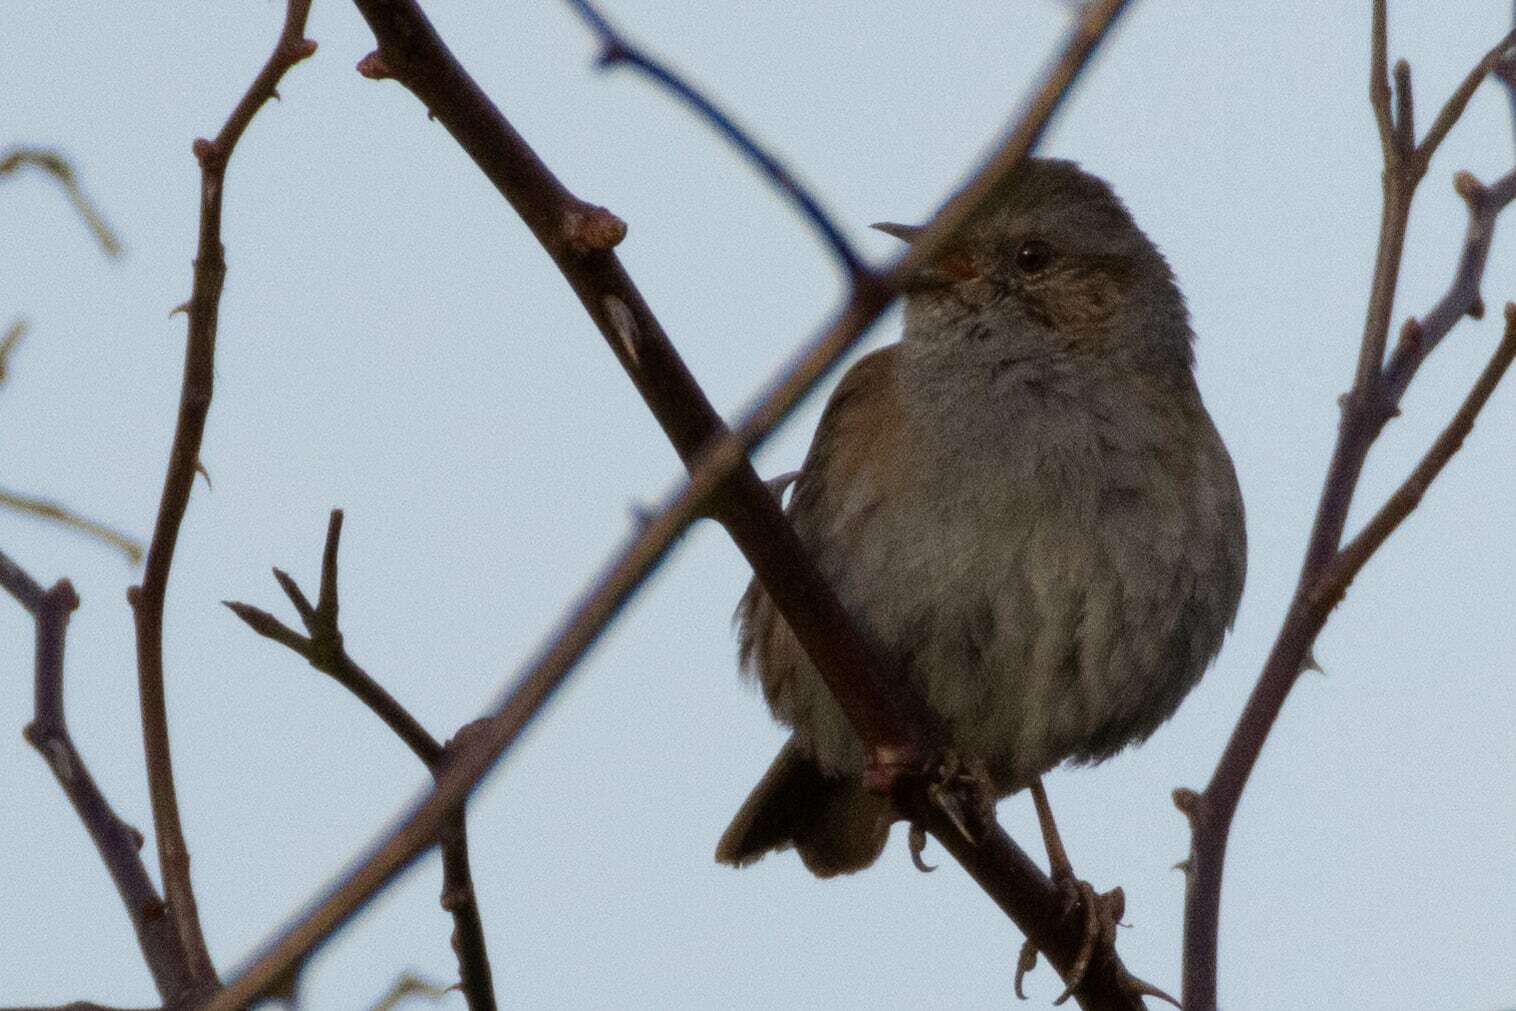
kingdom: Animalia
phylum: Chordata
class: Aves
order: Passeriformes
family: Prunellidae
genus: Prunella
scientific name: Prunella modularis
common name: Dunnock
